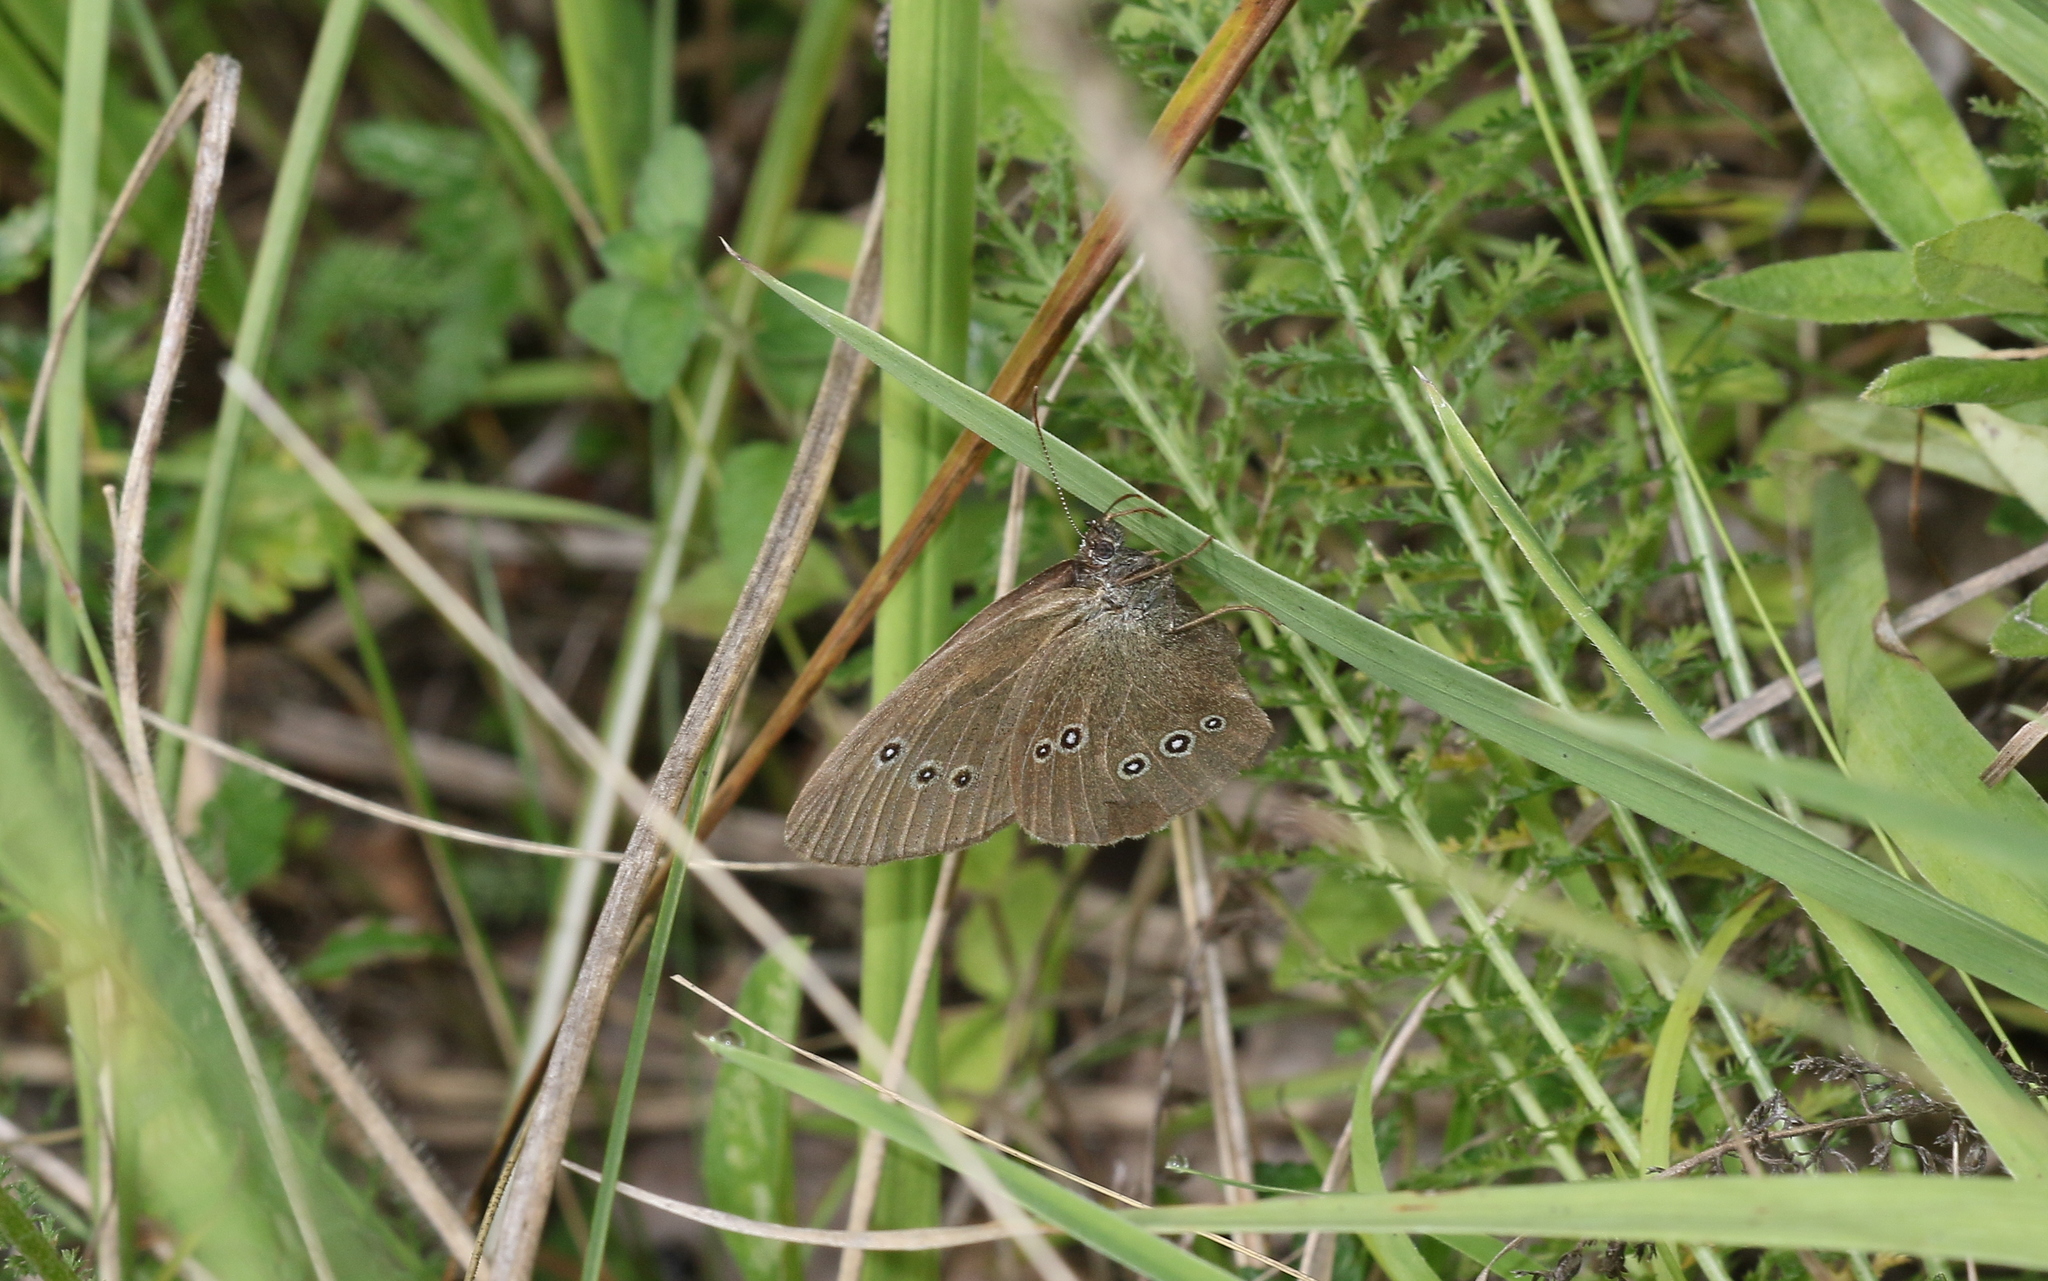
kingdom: Animalia
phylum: Arthropoda
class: Insecta
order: Lepidoptera
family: Nymphalidae
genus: Aphantopus
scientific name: Aphantopus hyperantus
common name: Ringlet
